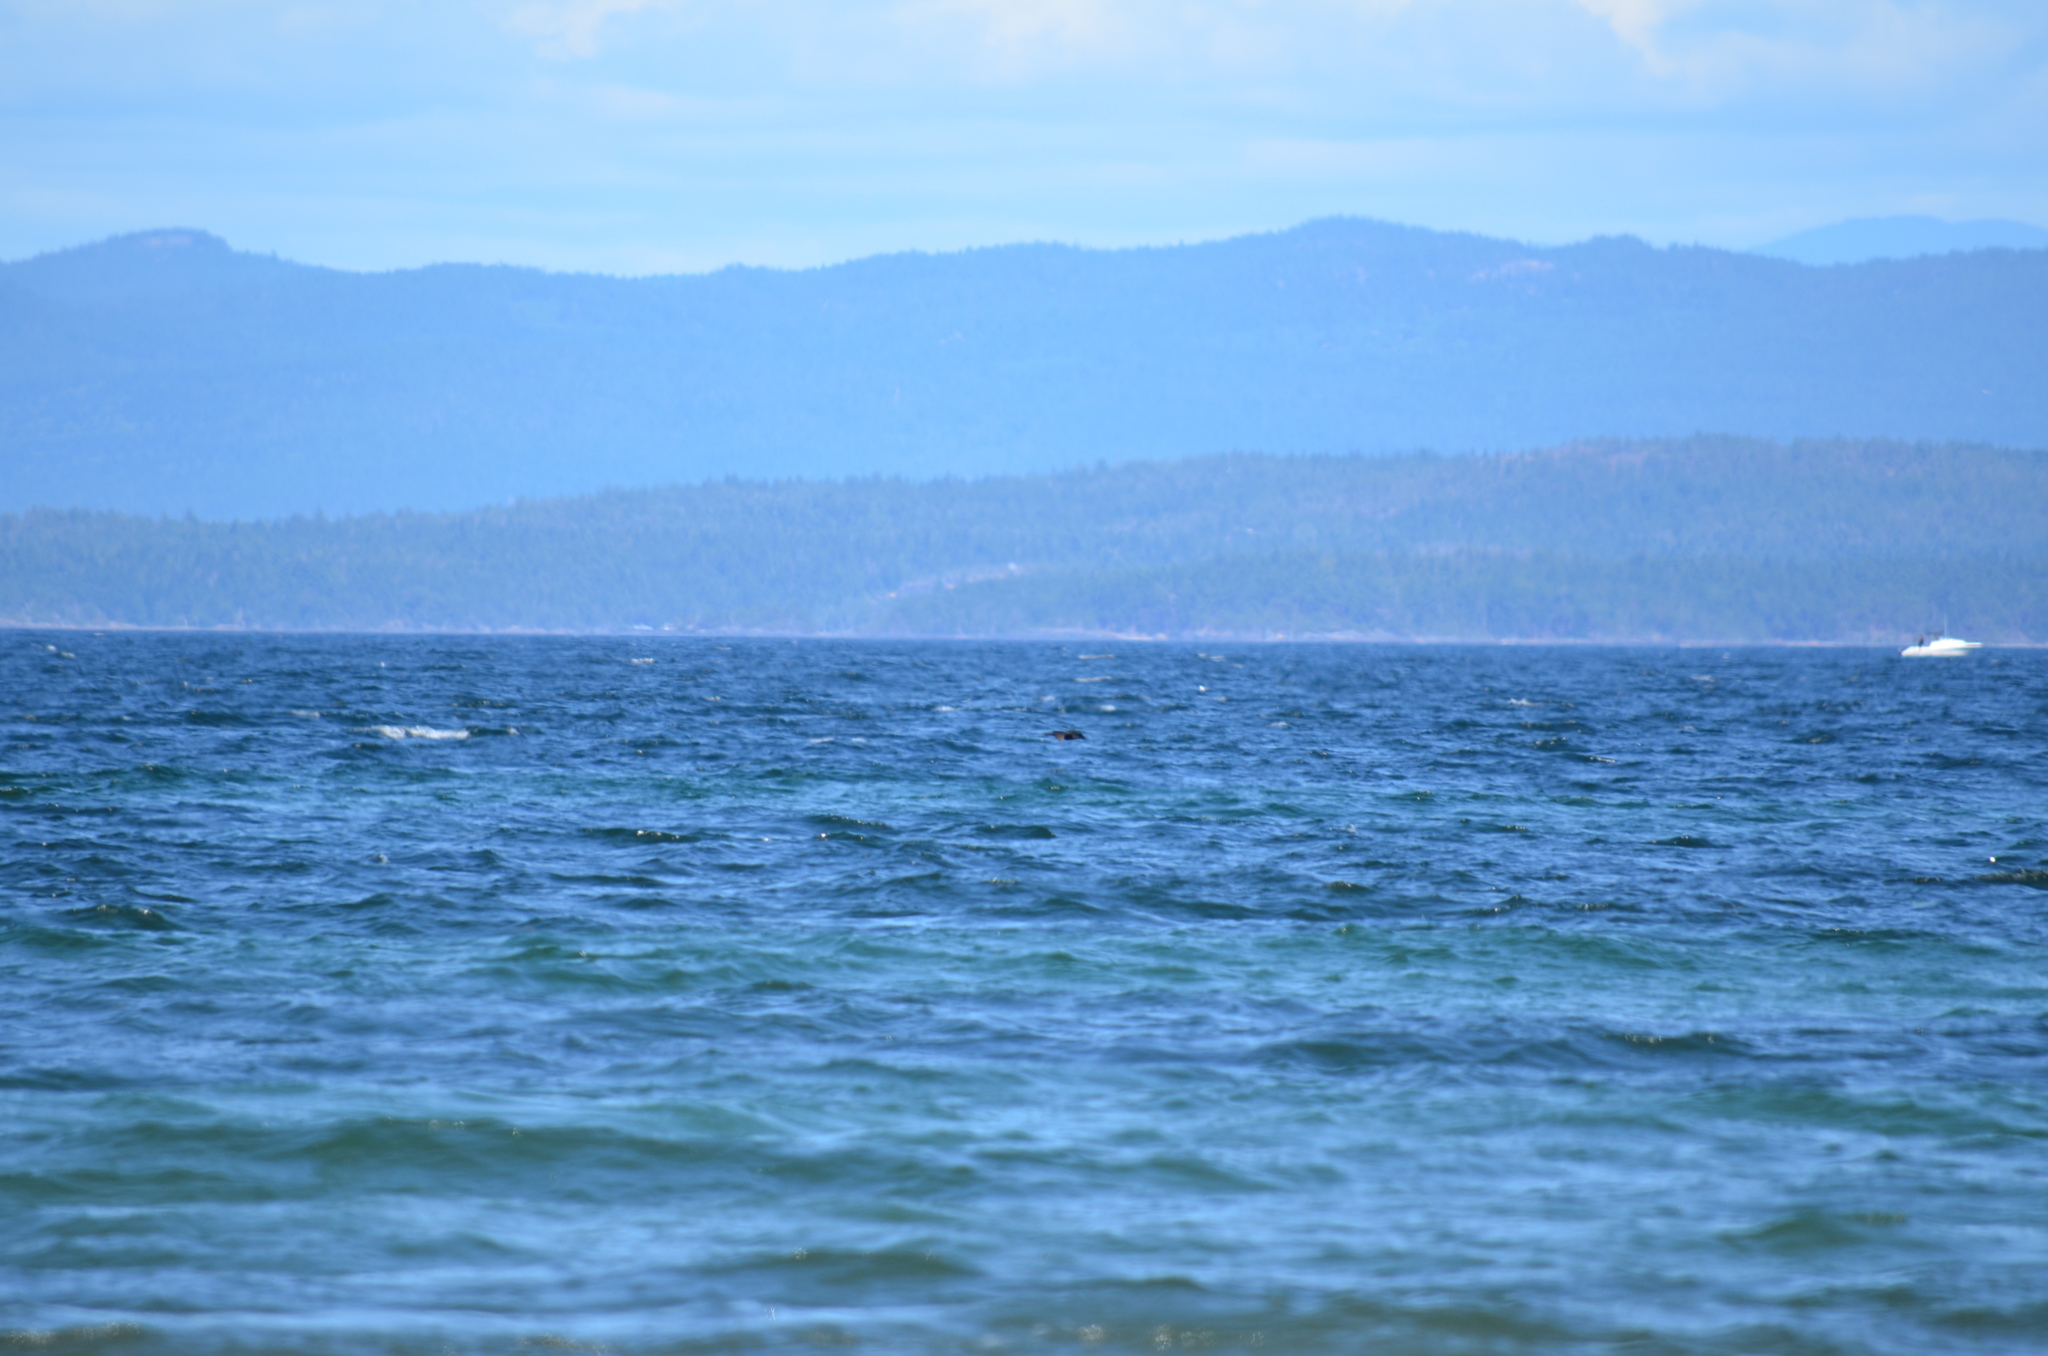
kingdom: Animalia
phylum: Chordata
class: Aves
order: Suliformes
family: Phalacrocoracidae
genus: Phalacrocorax
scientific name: Phalacrocorax pelagicus
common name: Pelagic cormorant
